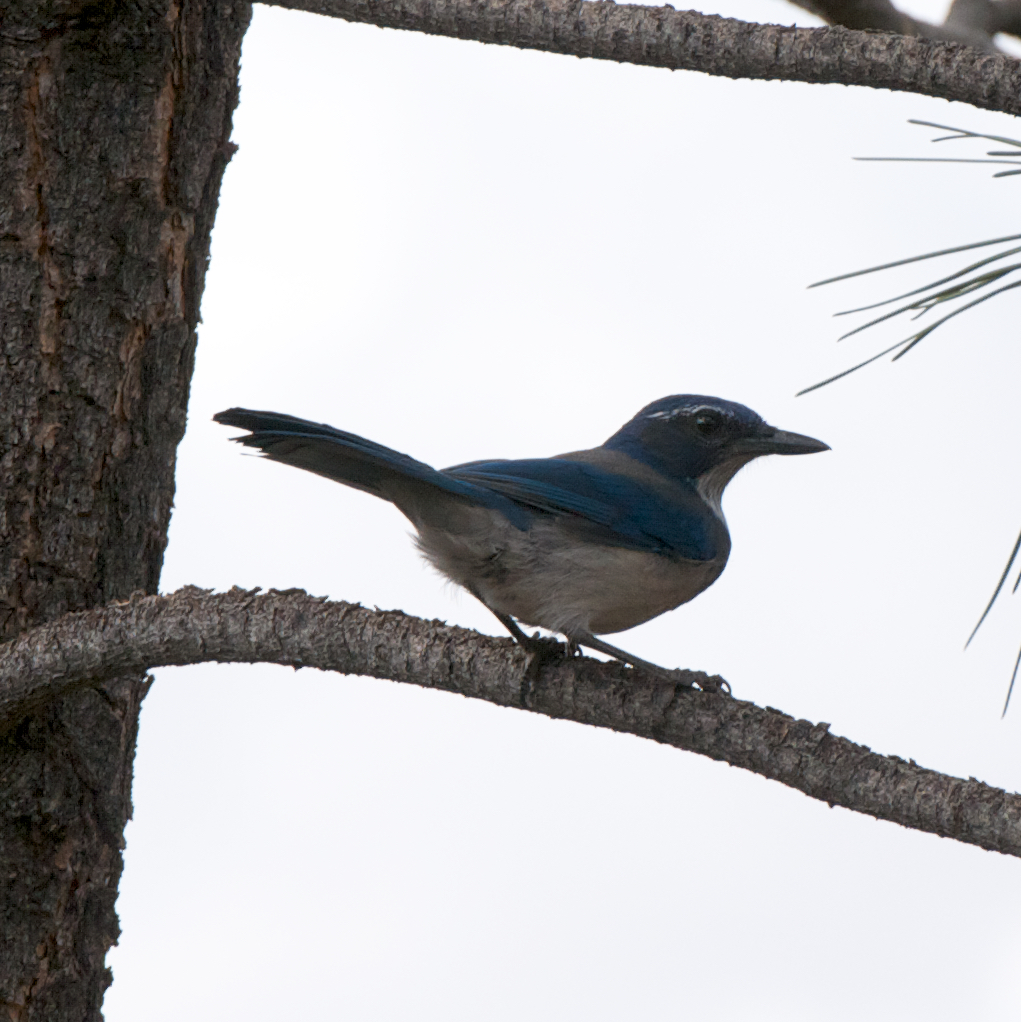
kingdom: Animalia
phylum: Chordata
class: Aves
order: Passeriformes
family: Corvidae
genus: Aphelocoma
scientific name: Aphelocoma californica
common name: California scrub-jay
